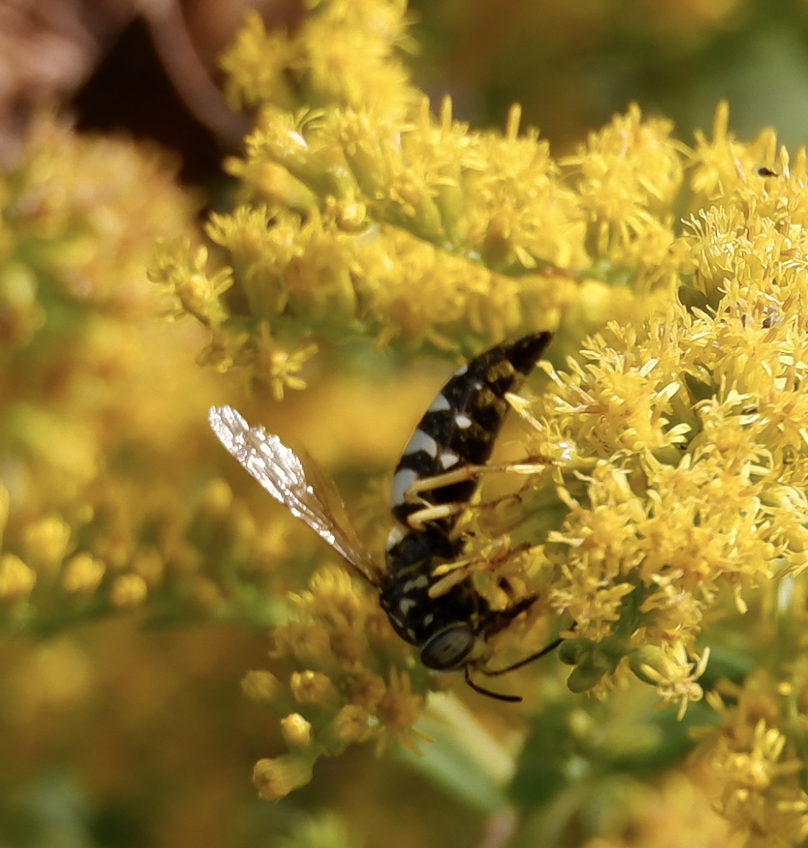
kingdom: Animalia
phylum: Arthropoda
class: Insecta
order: Hymenoptera
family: Crabronidae
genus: Bicyrtes
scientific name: Bicyrtes quadrifasciatus
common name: Four-banded stink bug hunter wasp
